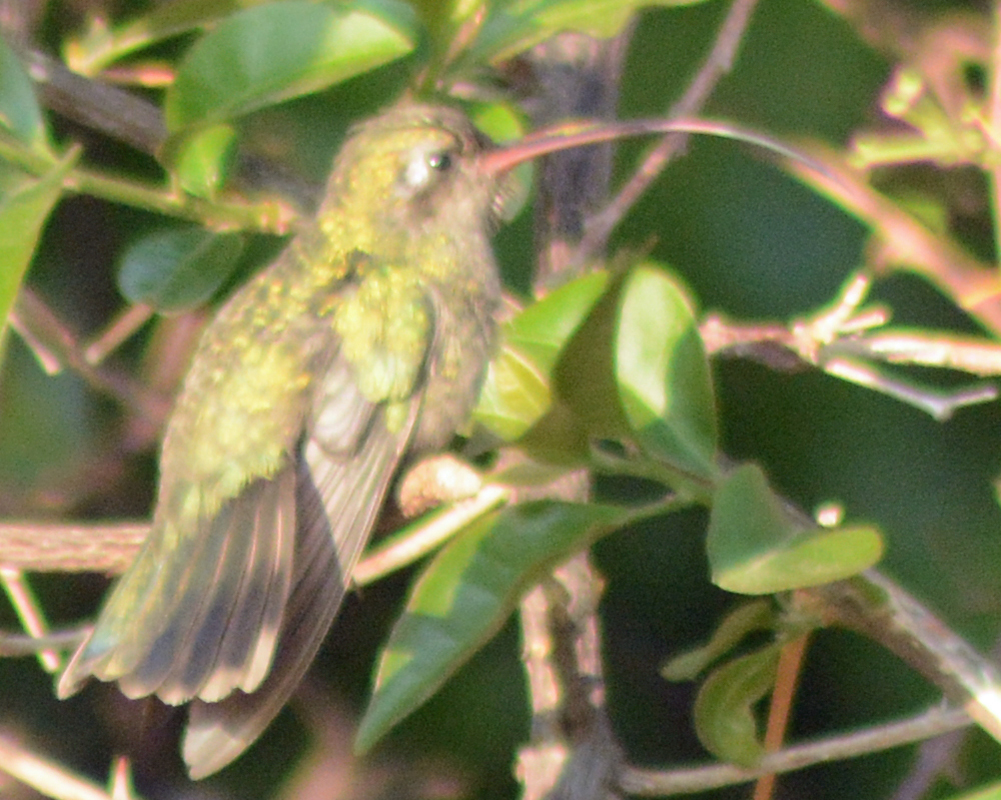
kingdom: Animalia
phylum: Chordata
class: Aves
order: Apodiformes
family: Trochilidae
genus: Cynanthus
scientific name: Cynanthus latirostris
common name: Broad-billed hummingbird
